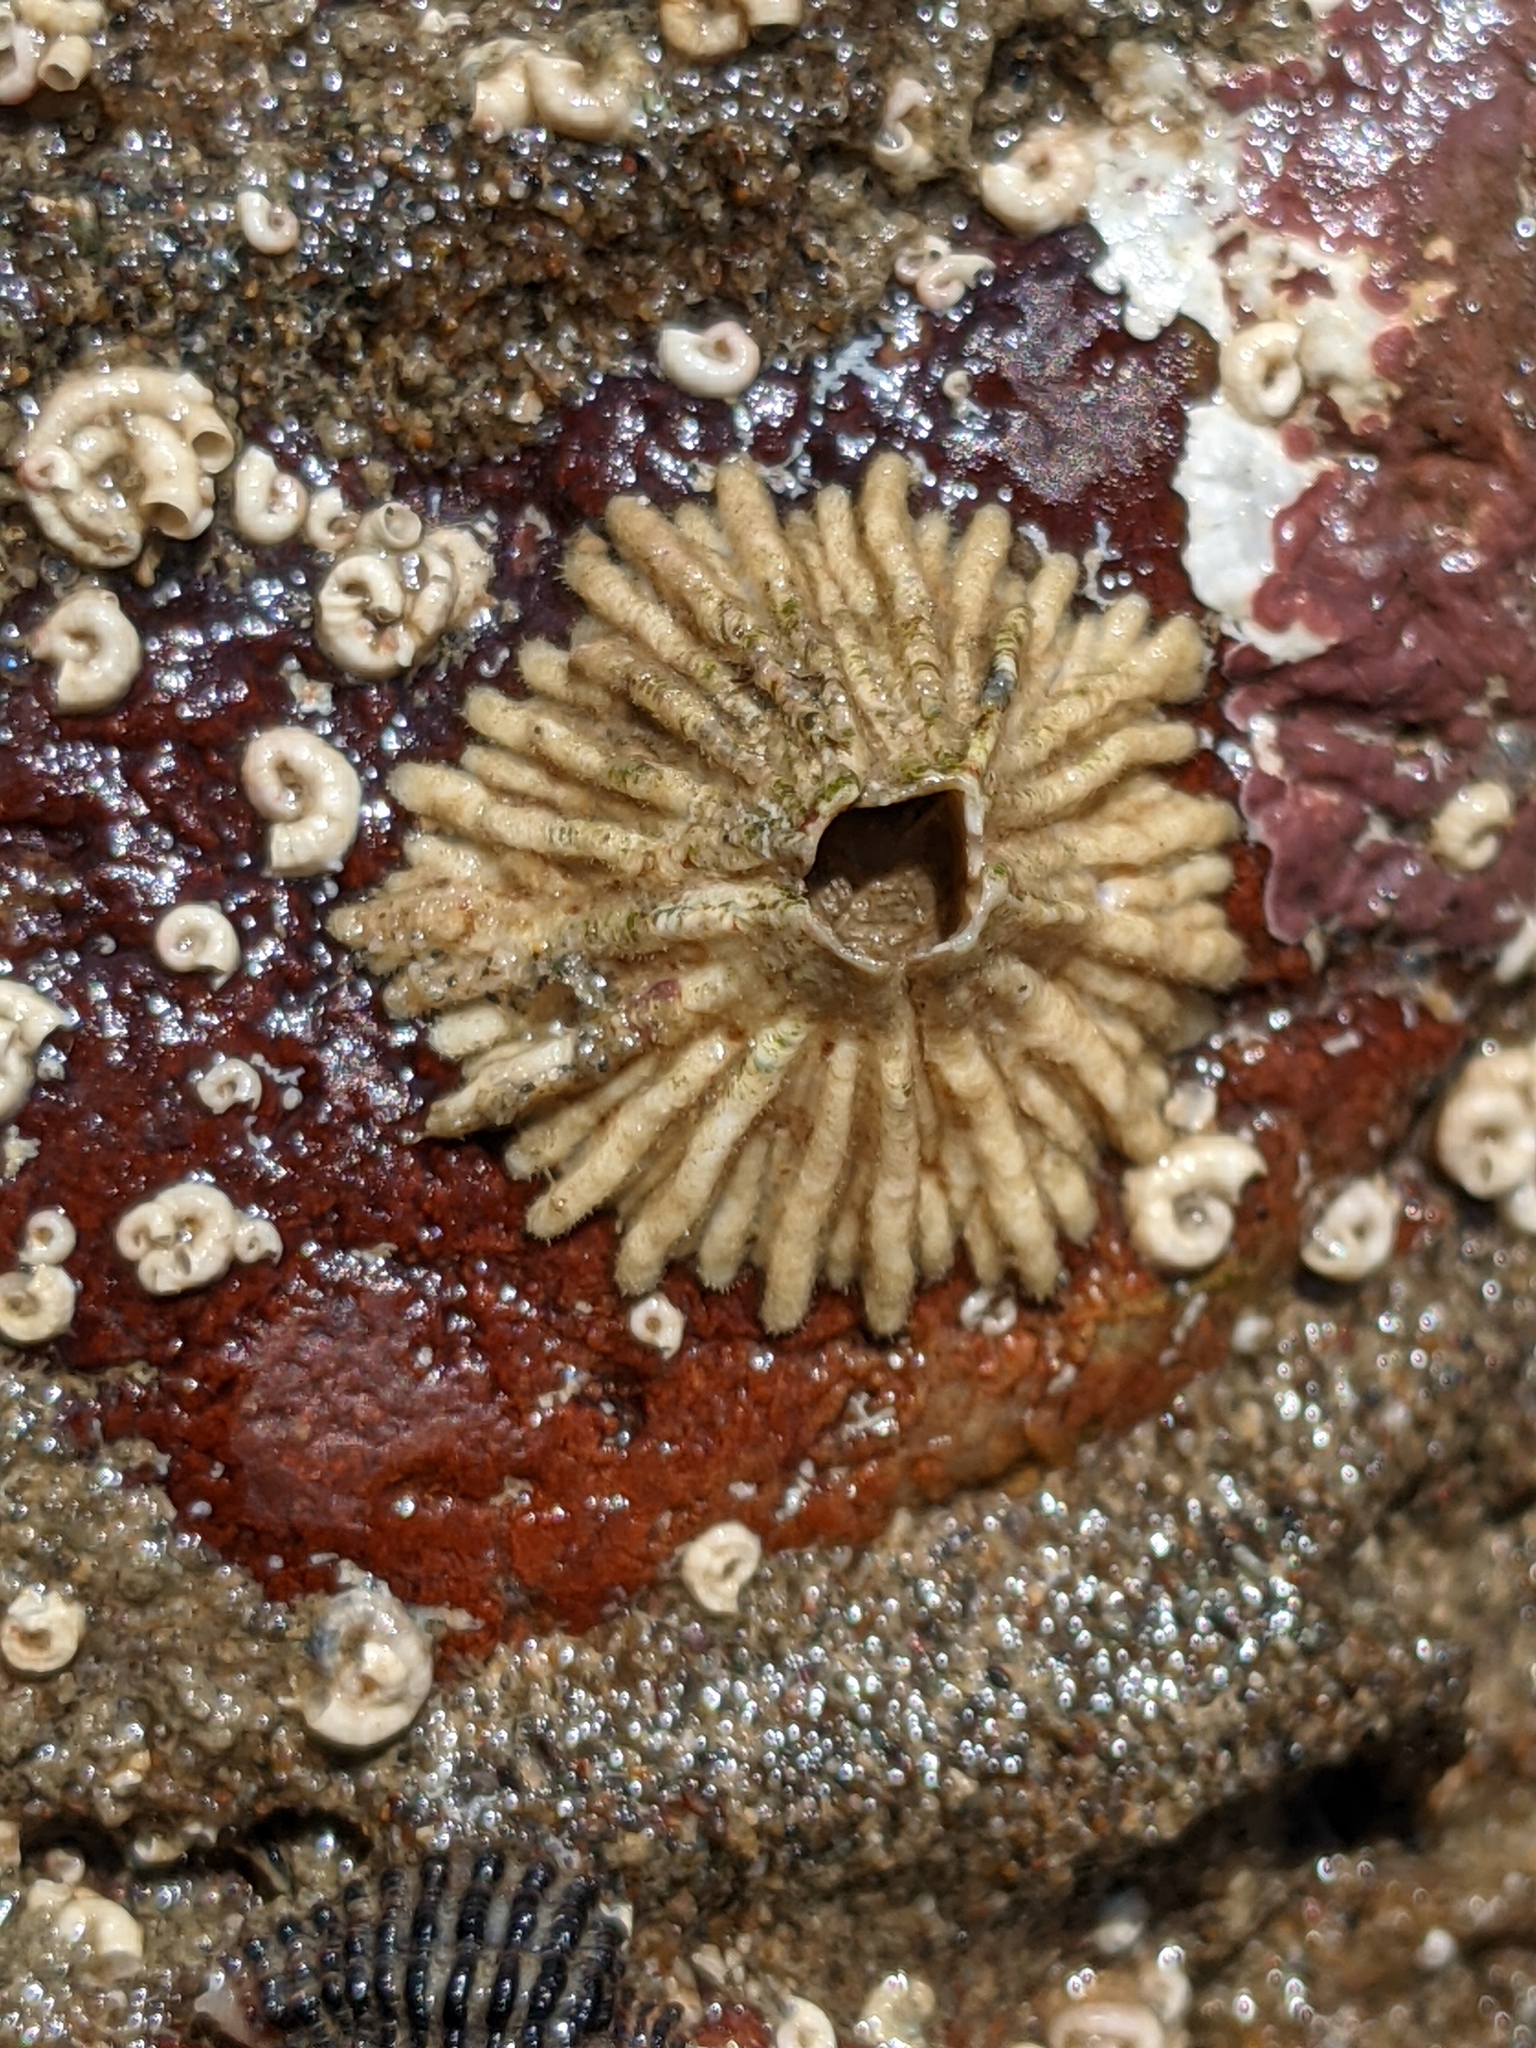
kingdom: Animalia
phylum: Arthropoda
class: Maxillopoda
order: Sessilia
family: Tetraclitidae
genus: Tetraclita
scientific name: Tetraclita rubescens
